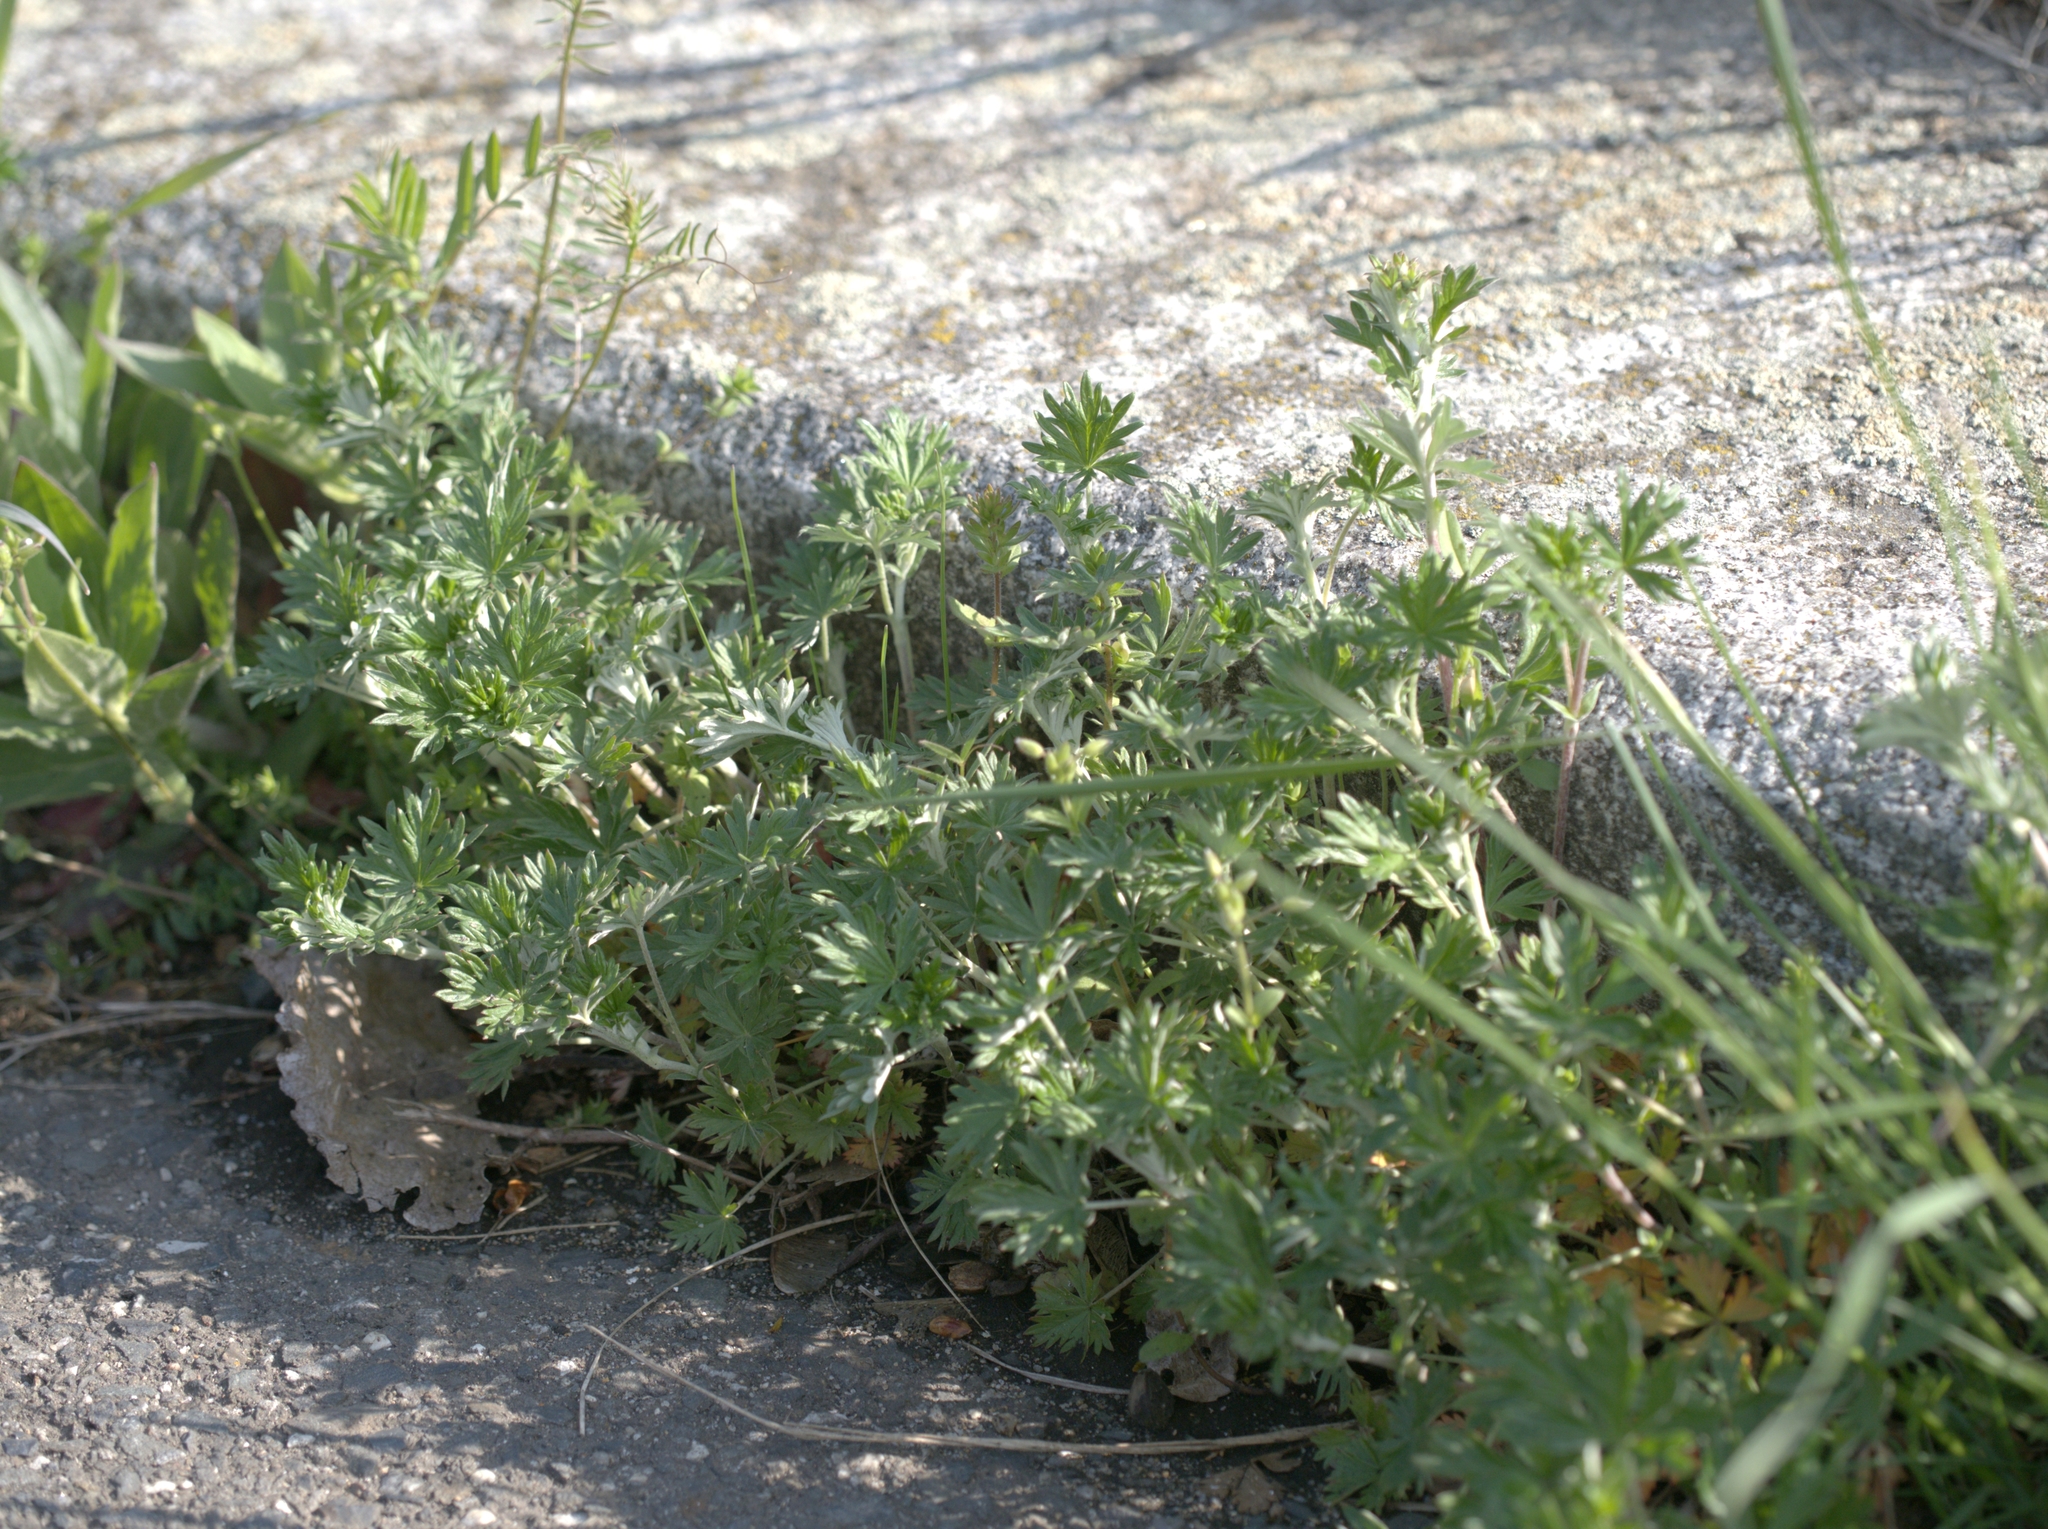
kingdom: Plantae
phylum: Tracheophyta
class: Magnoliopsida
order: Rosales
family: Rosaceae
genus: Potentilla
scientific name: Potentilla argentea
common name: Hoary cinquefoil
